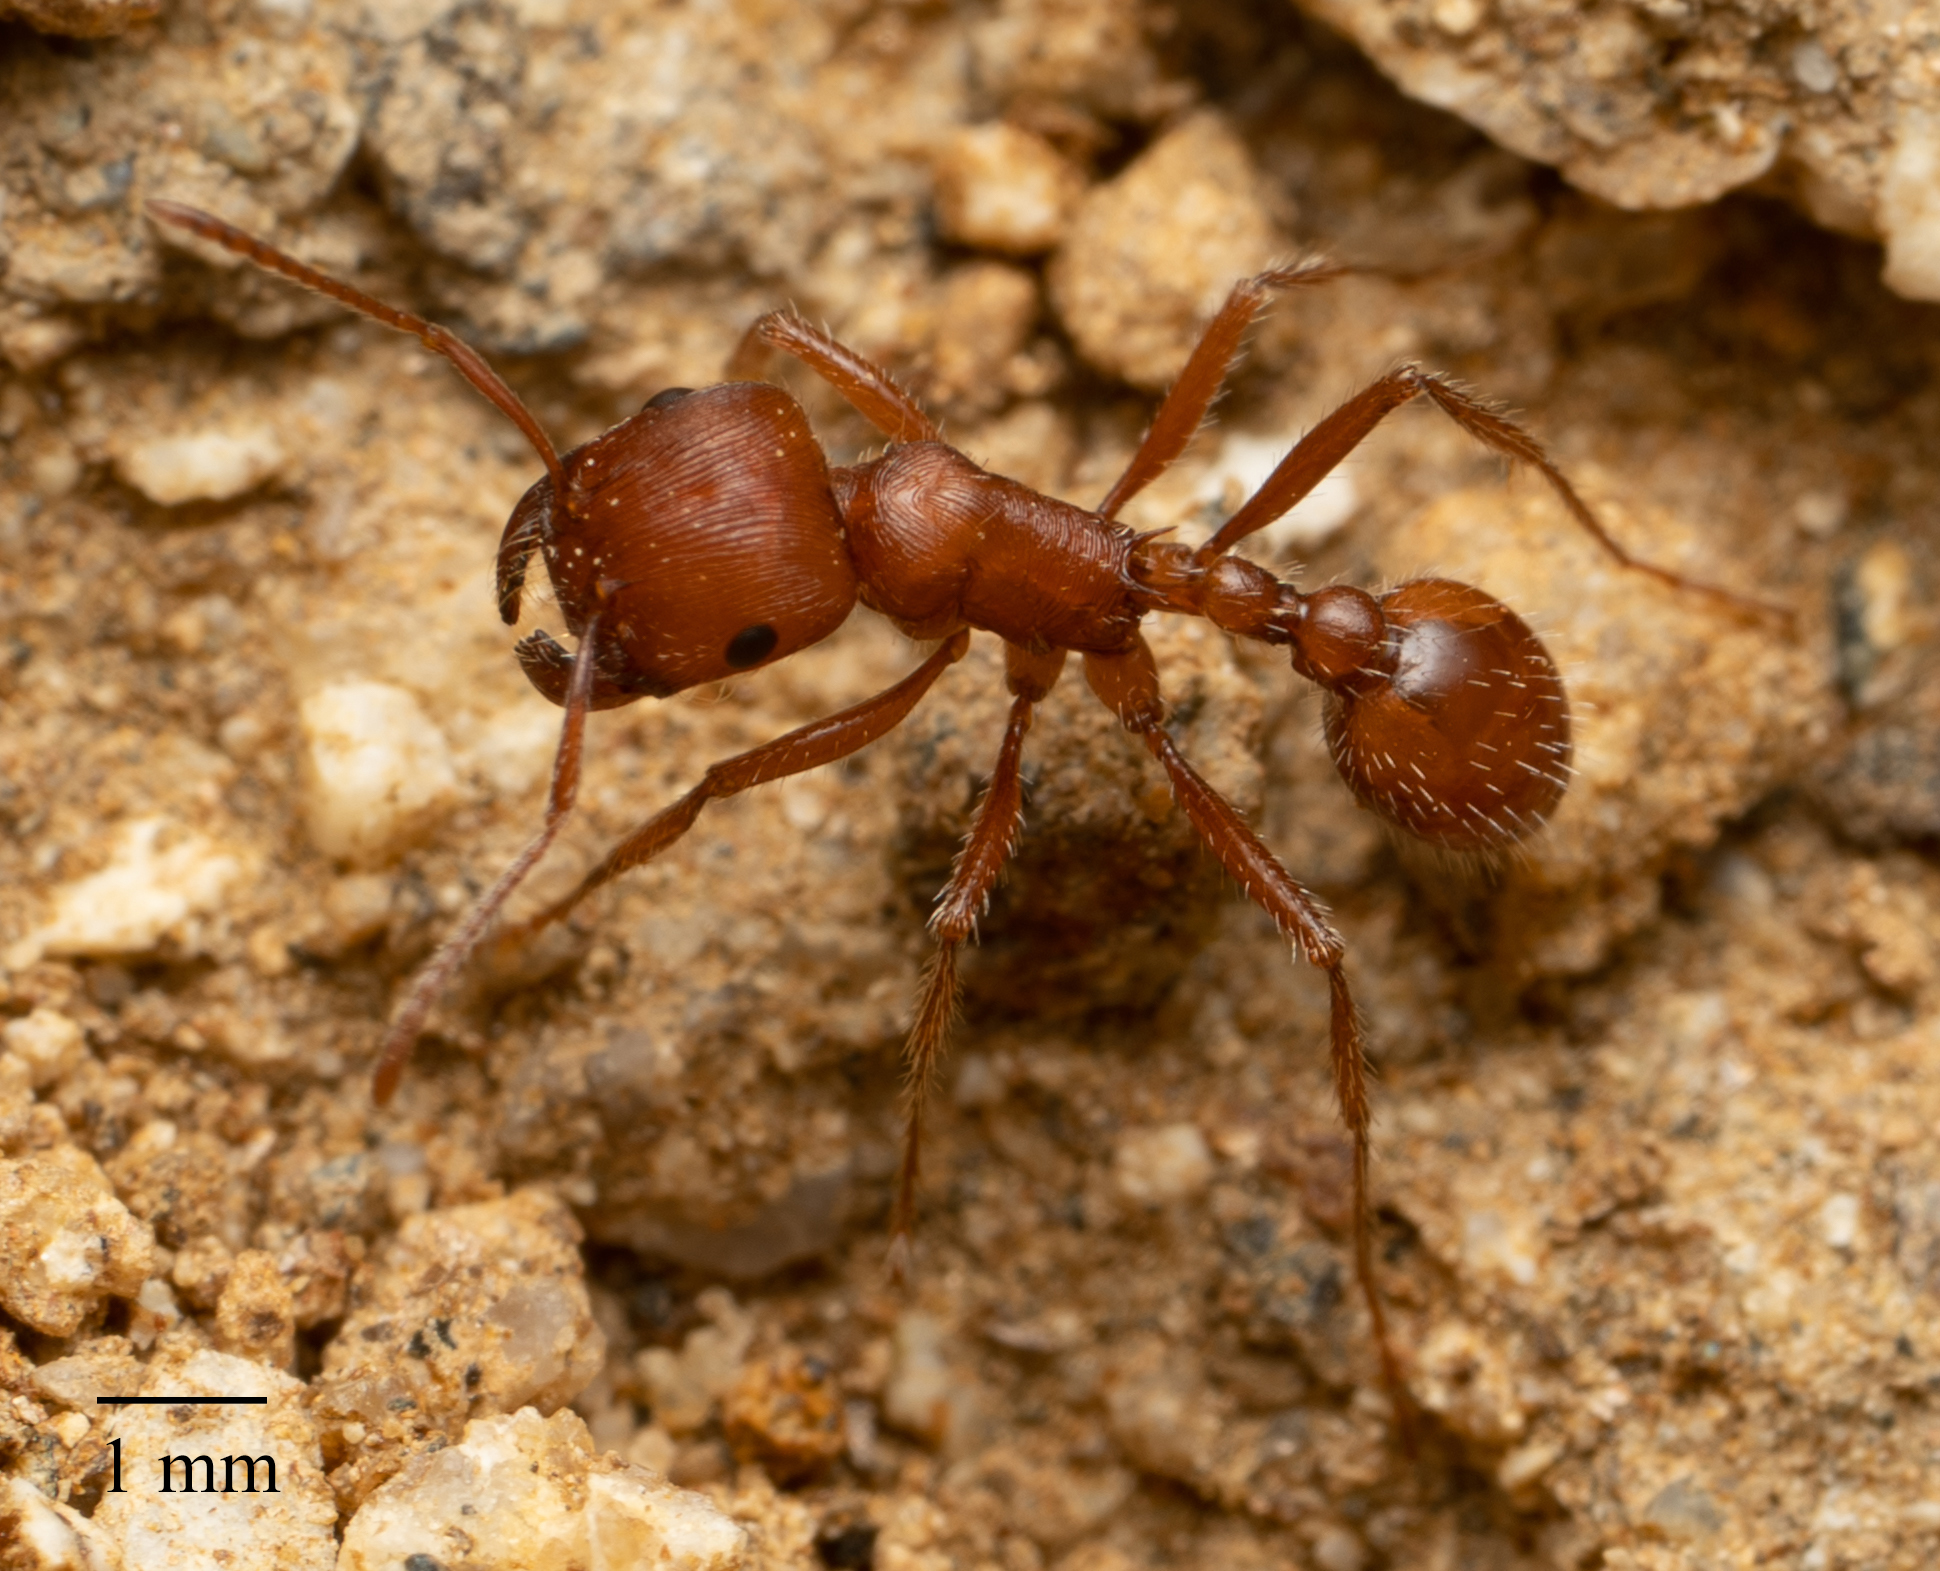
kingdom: Animalia
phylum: Arthropoda
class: Insecta
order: Hymenoptera
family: Formicidae
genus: Pogonomyrmex
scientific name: Pogonomyrmex subnitidus
